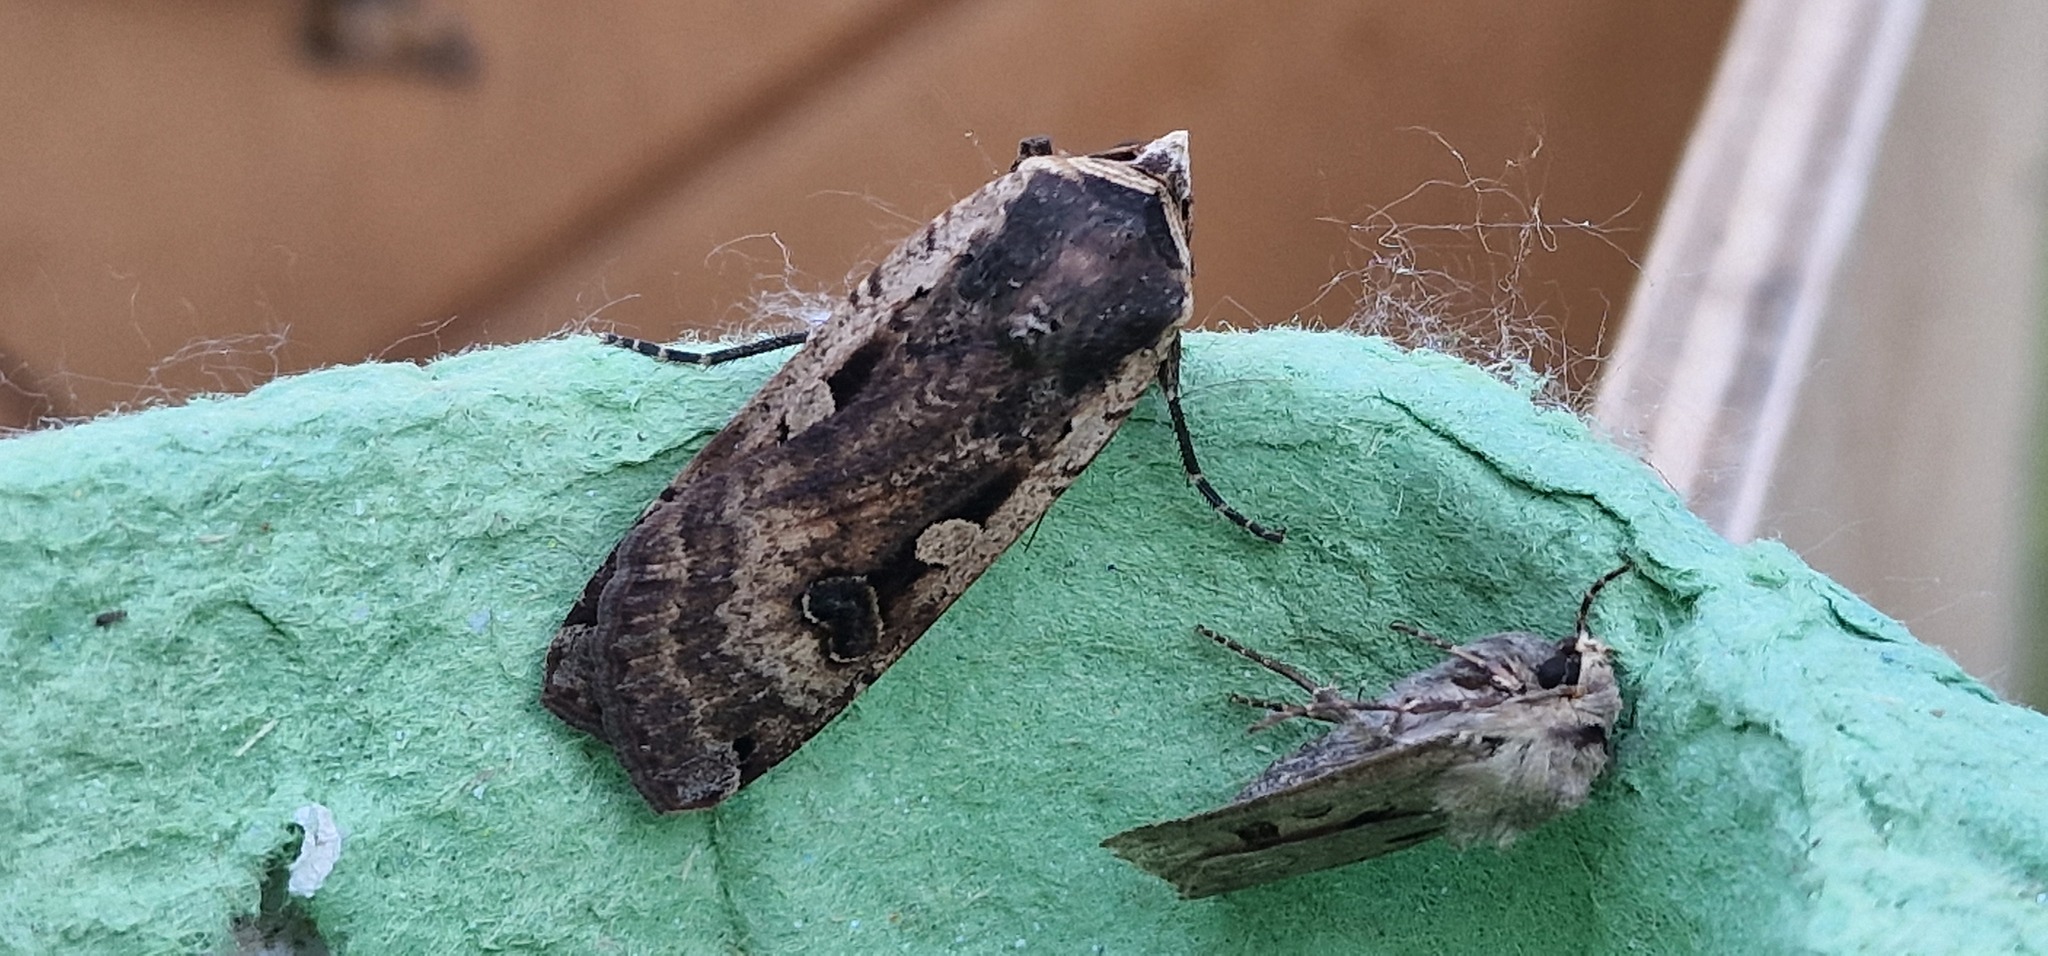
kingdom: Animalia
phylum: Arthropoda
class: Insecta
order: Lepidoptera
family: Noctuidae
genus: Noctua
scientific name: Noctua pronuba
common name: Large yellow underwing
